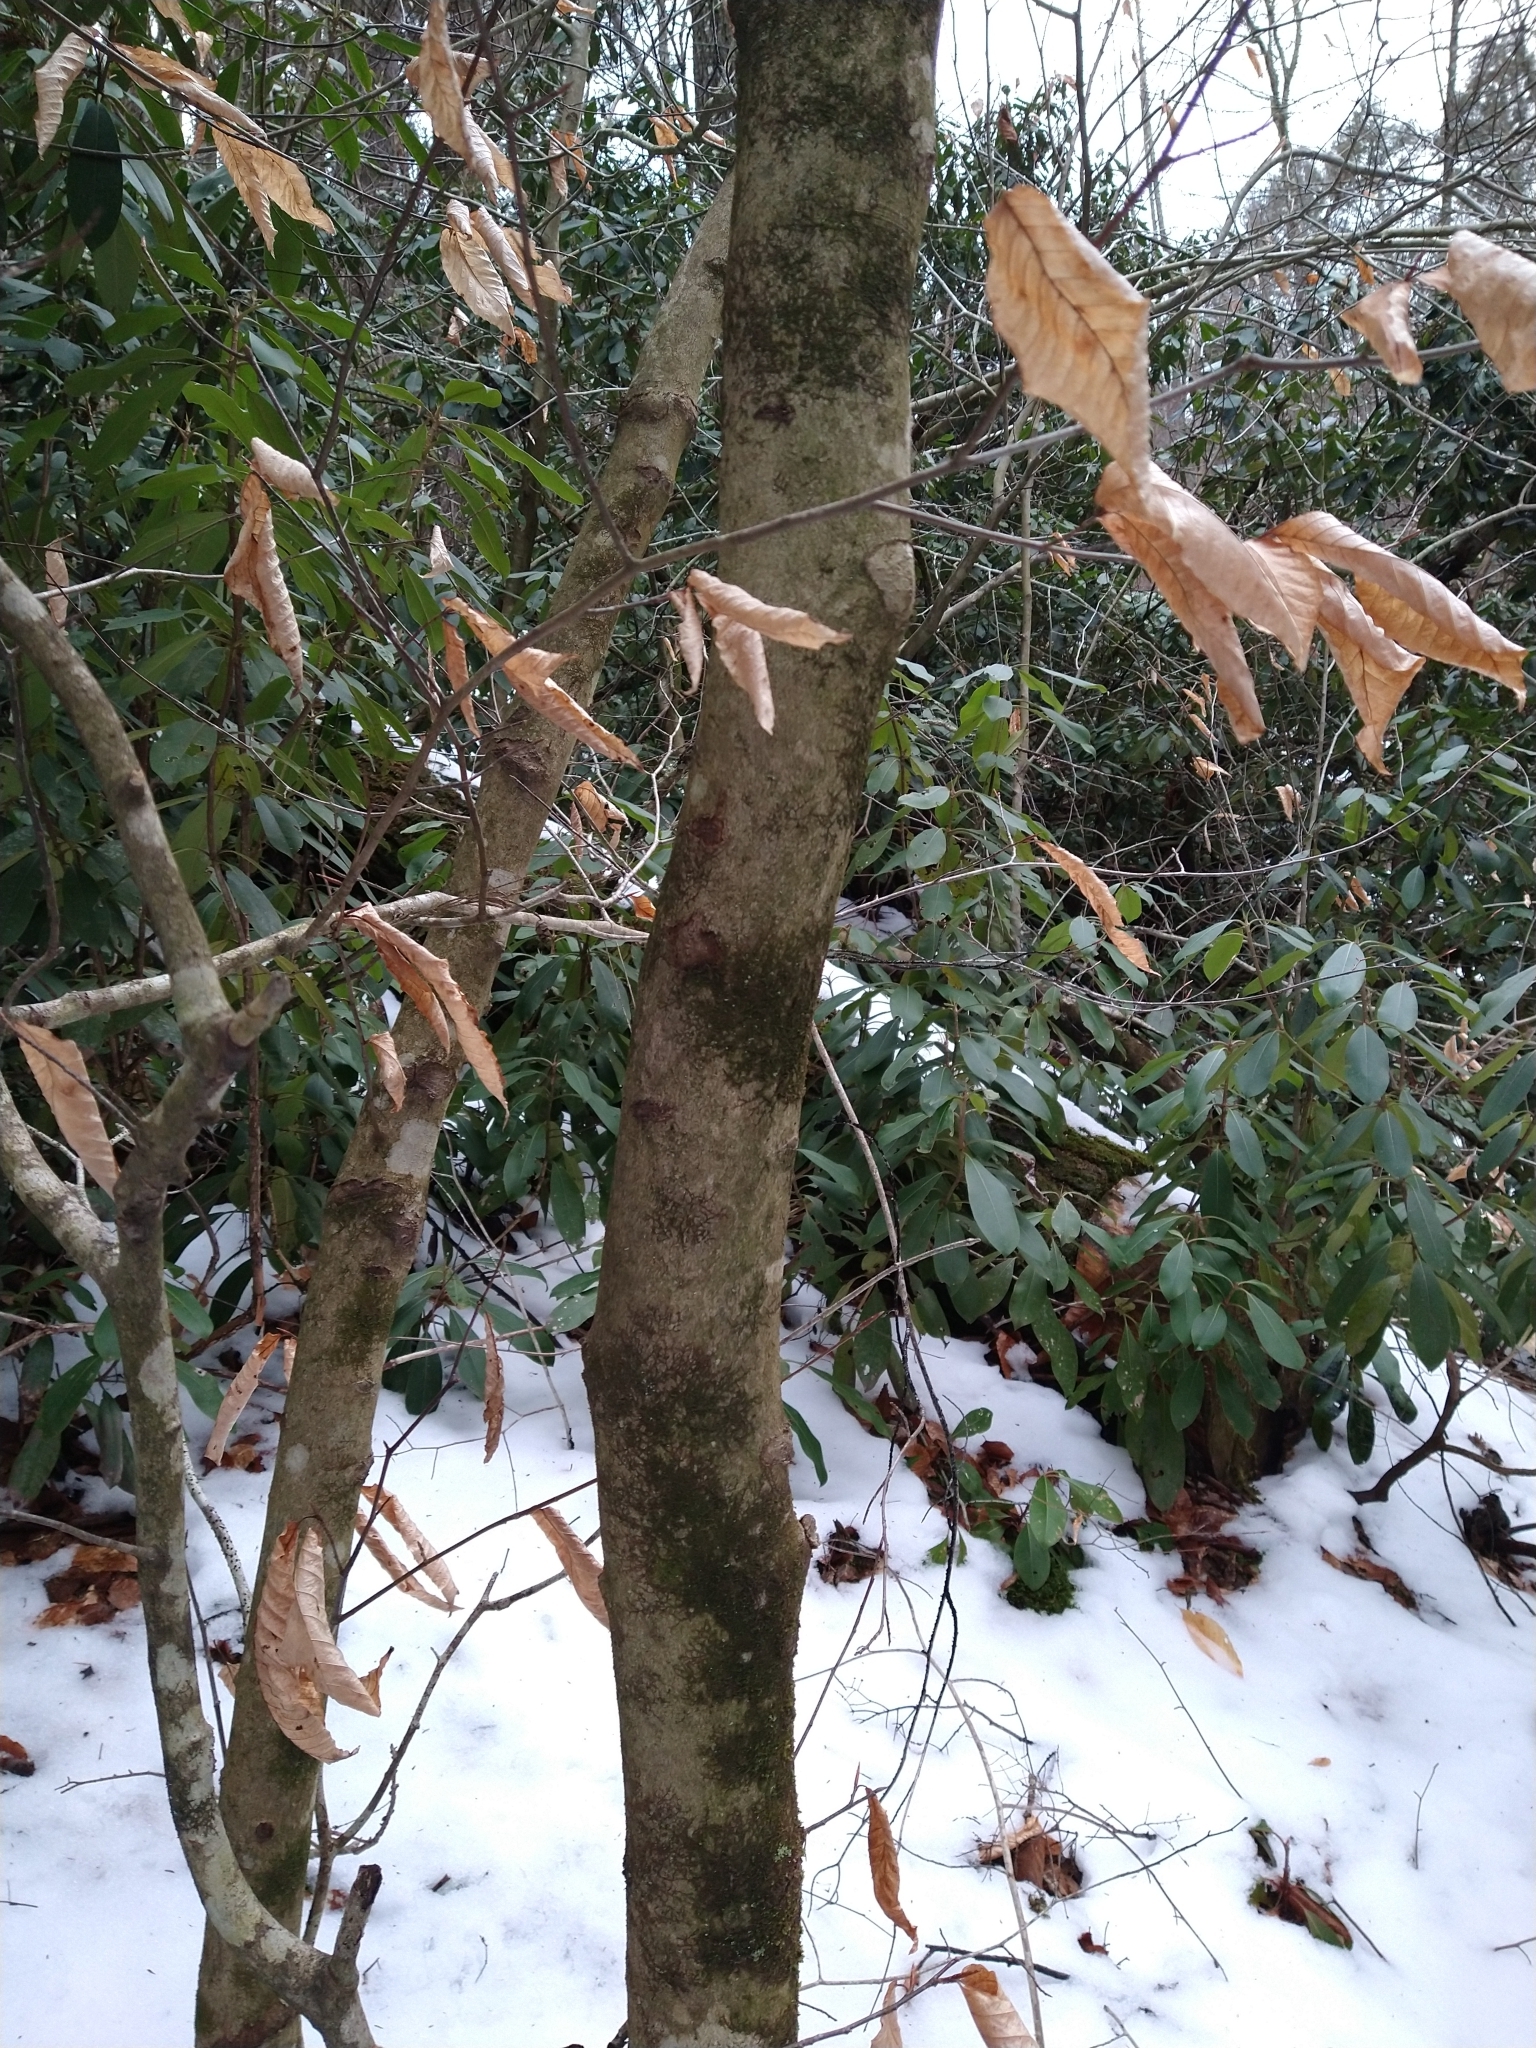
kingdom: Fungi
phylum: Ascomycota
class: Dothideomycetes
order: Capnodiales
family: Capnodiaceae
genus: Scorias
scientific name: Scorias spongiosa
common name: Black sooty mold
